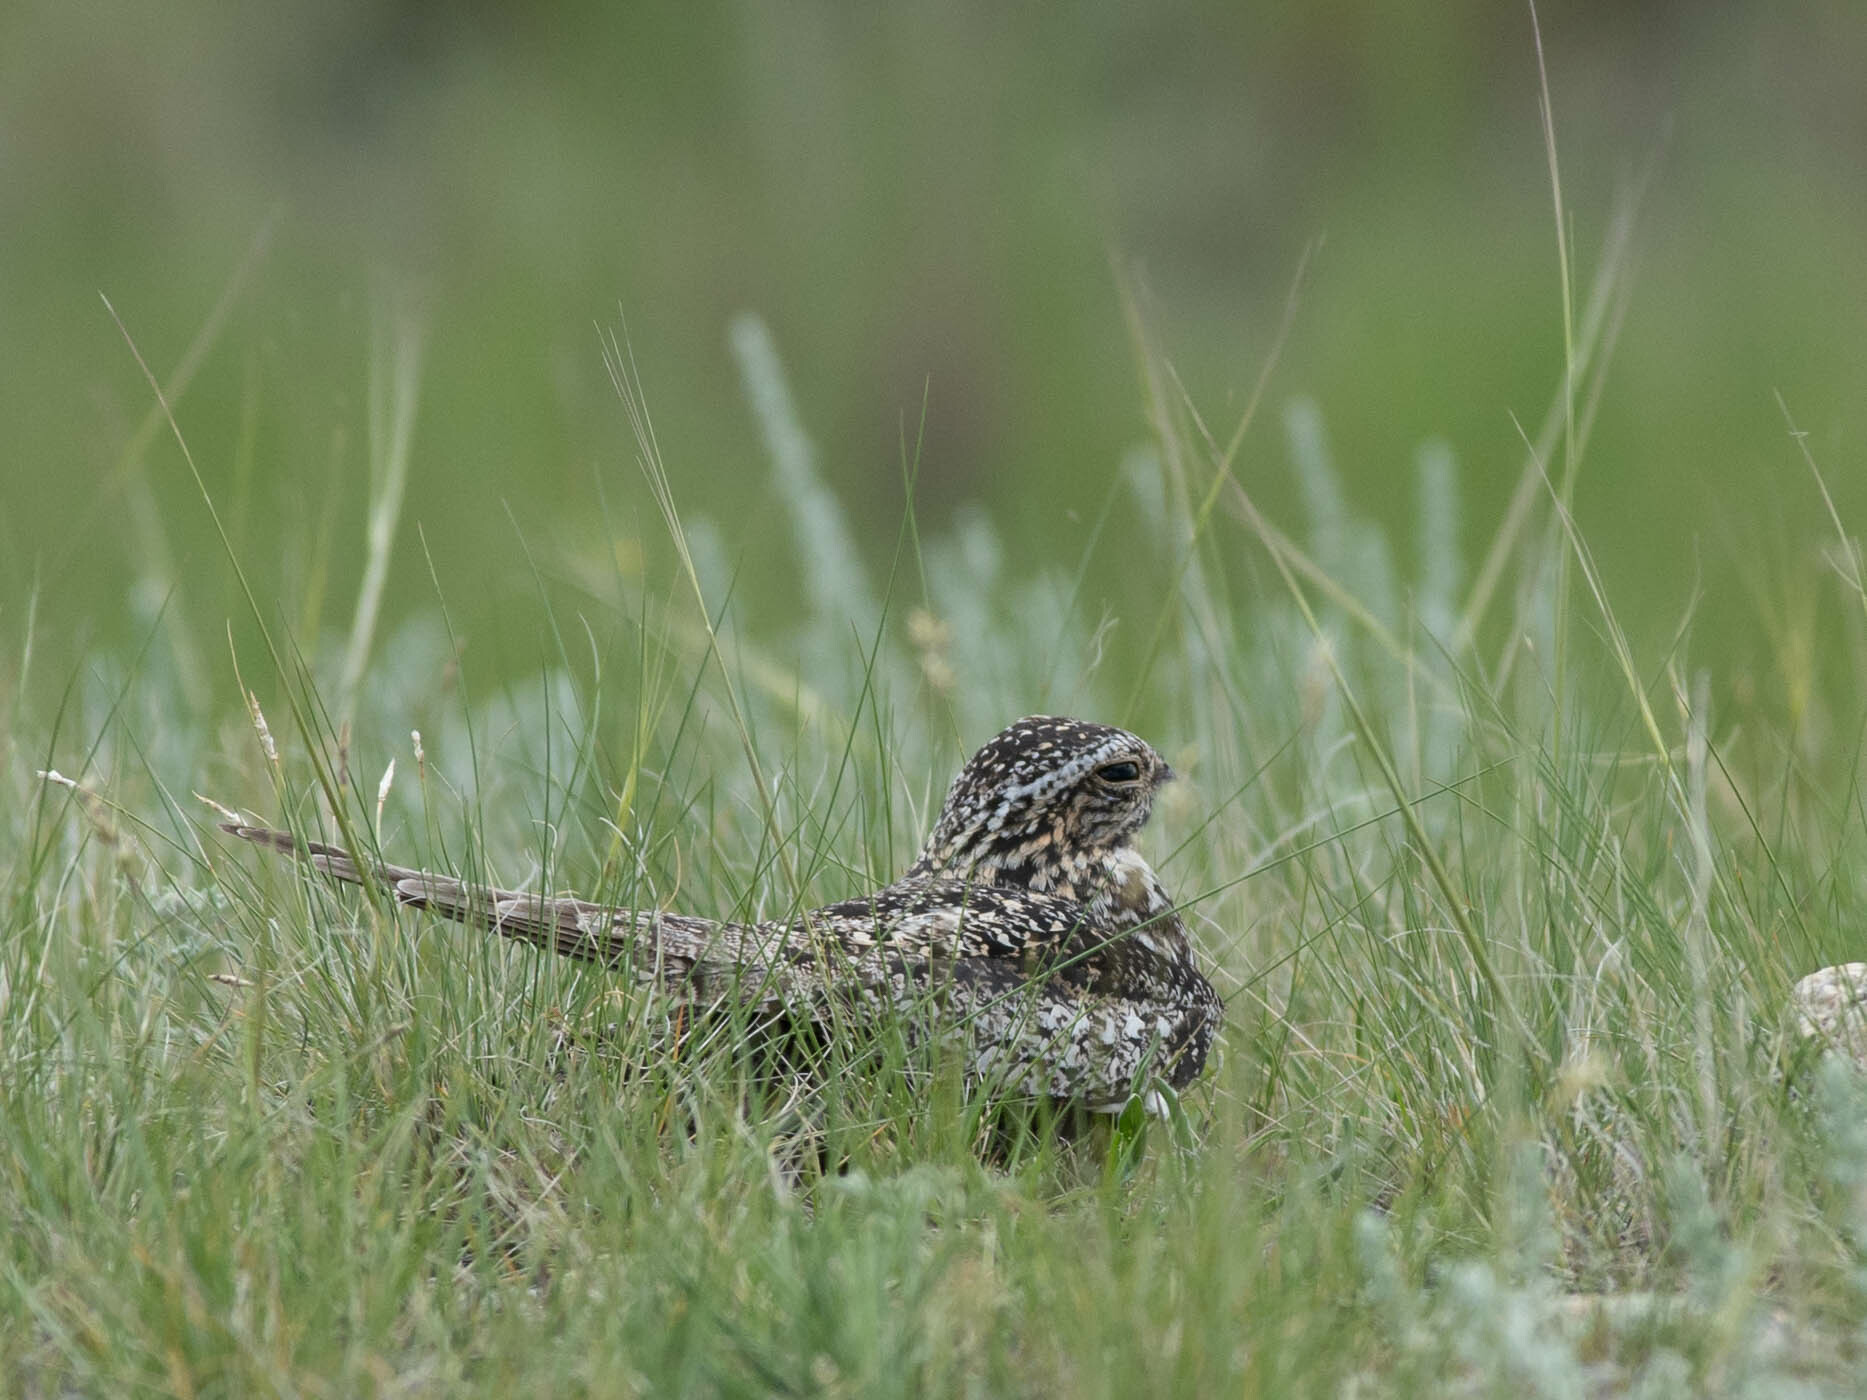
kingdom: Animalia
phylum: Chordata
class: Aves
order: Caprimulgiformes
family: Caprimulgidae
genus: Chordeiles
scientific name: Chordeiles minor
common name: Common nighthawk
